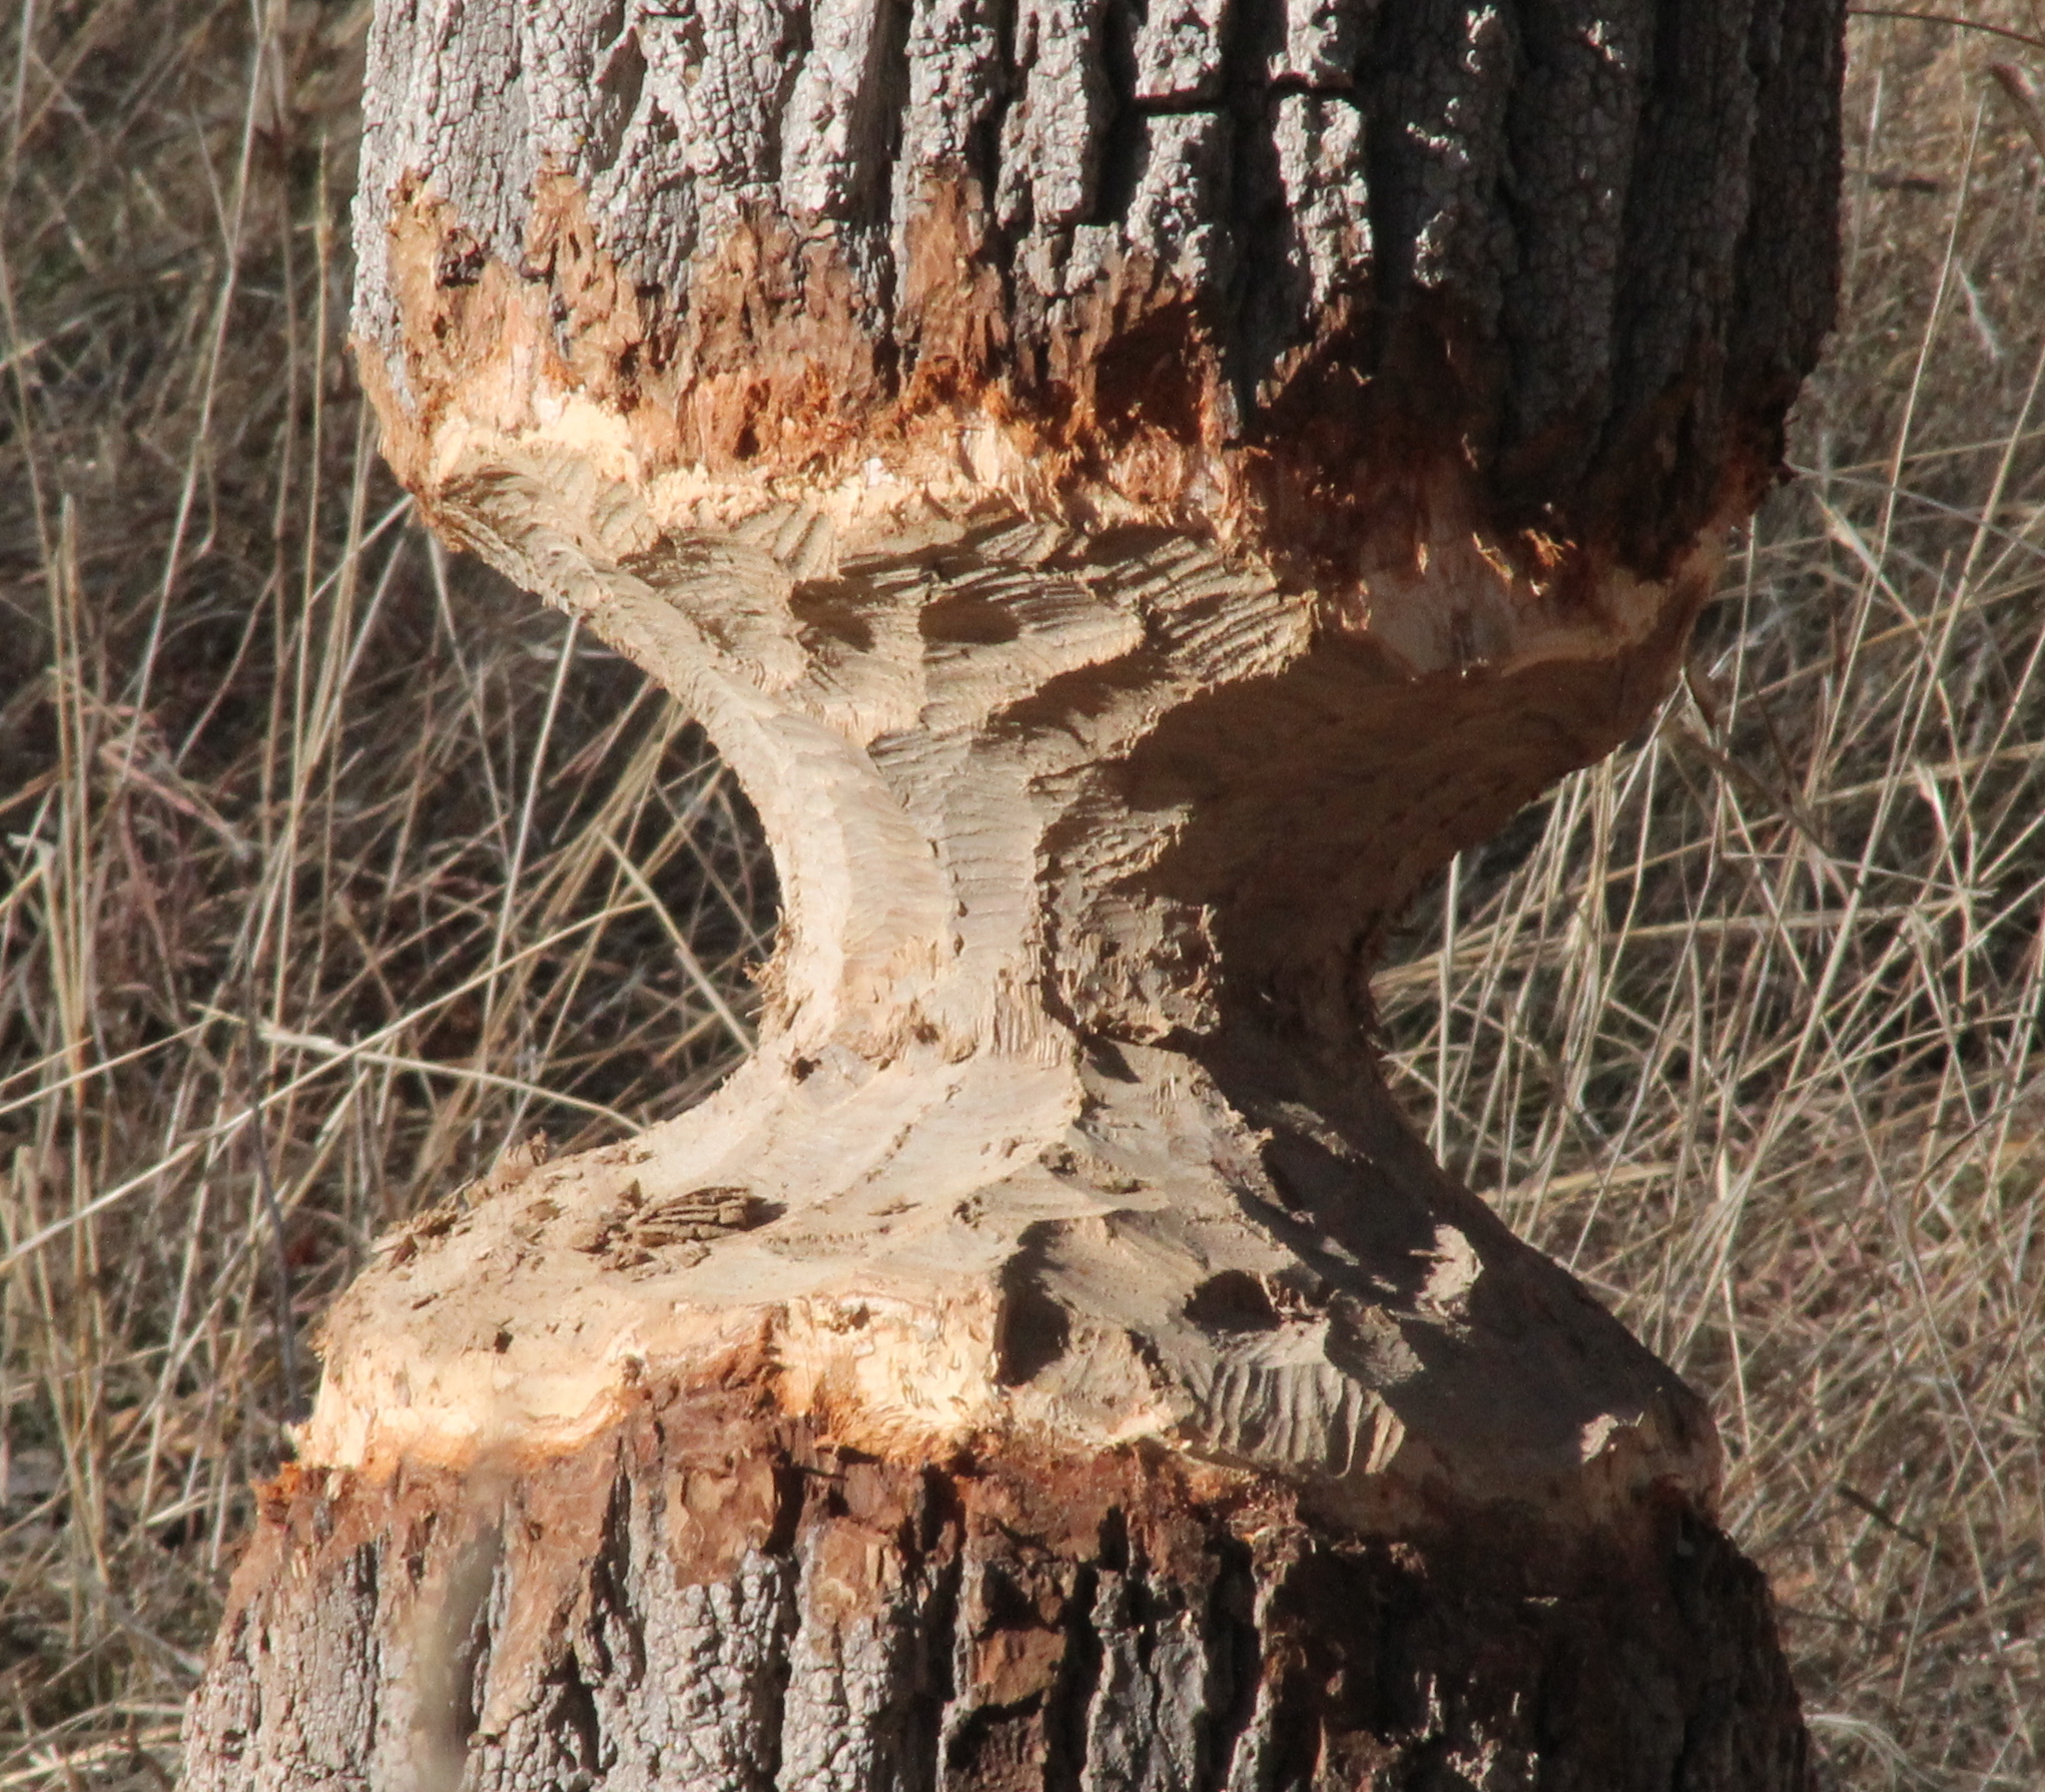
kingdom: Animalia
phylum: Chordata
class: Mammalia
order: Rodentia
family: Castoridae
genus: Castor
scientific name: Castor canadensis
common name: American beaver
